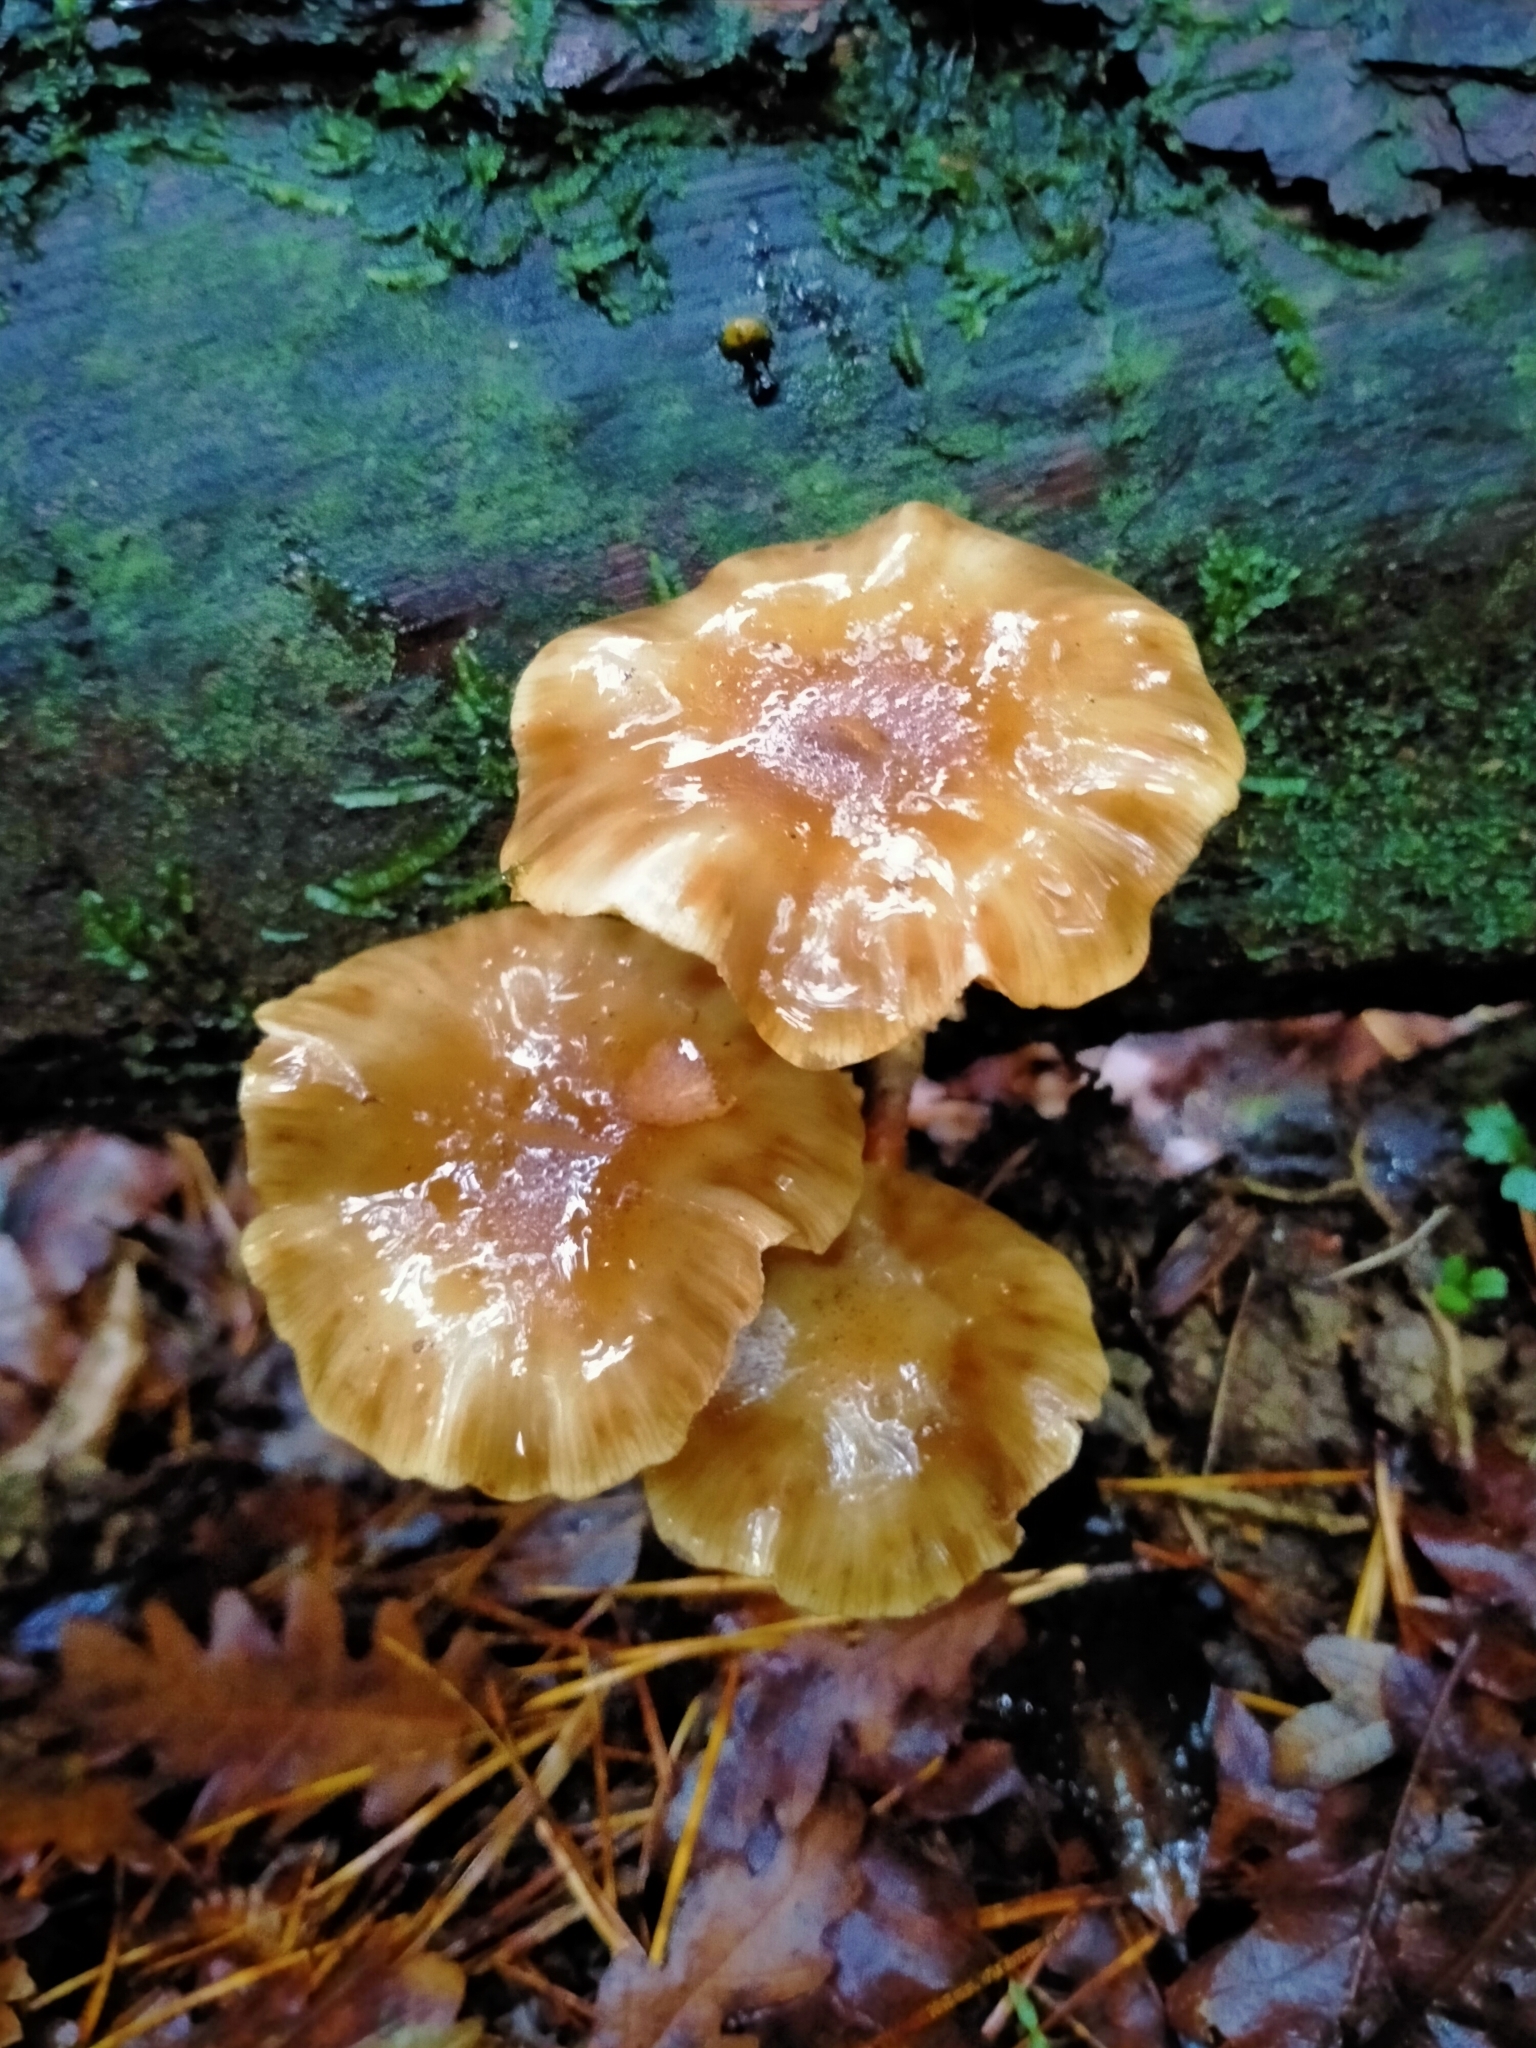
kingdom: Fungi
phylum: Basidiomycota
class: Agaricomycetes
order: Agaricales
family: Physalacriaceae
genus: Armillaria
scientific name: Armillaria novae-zelandiae
